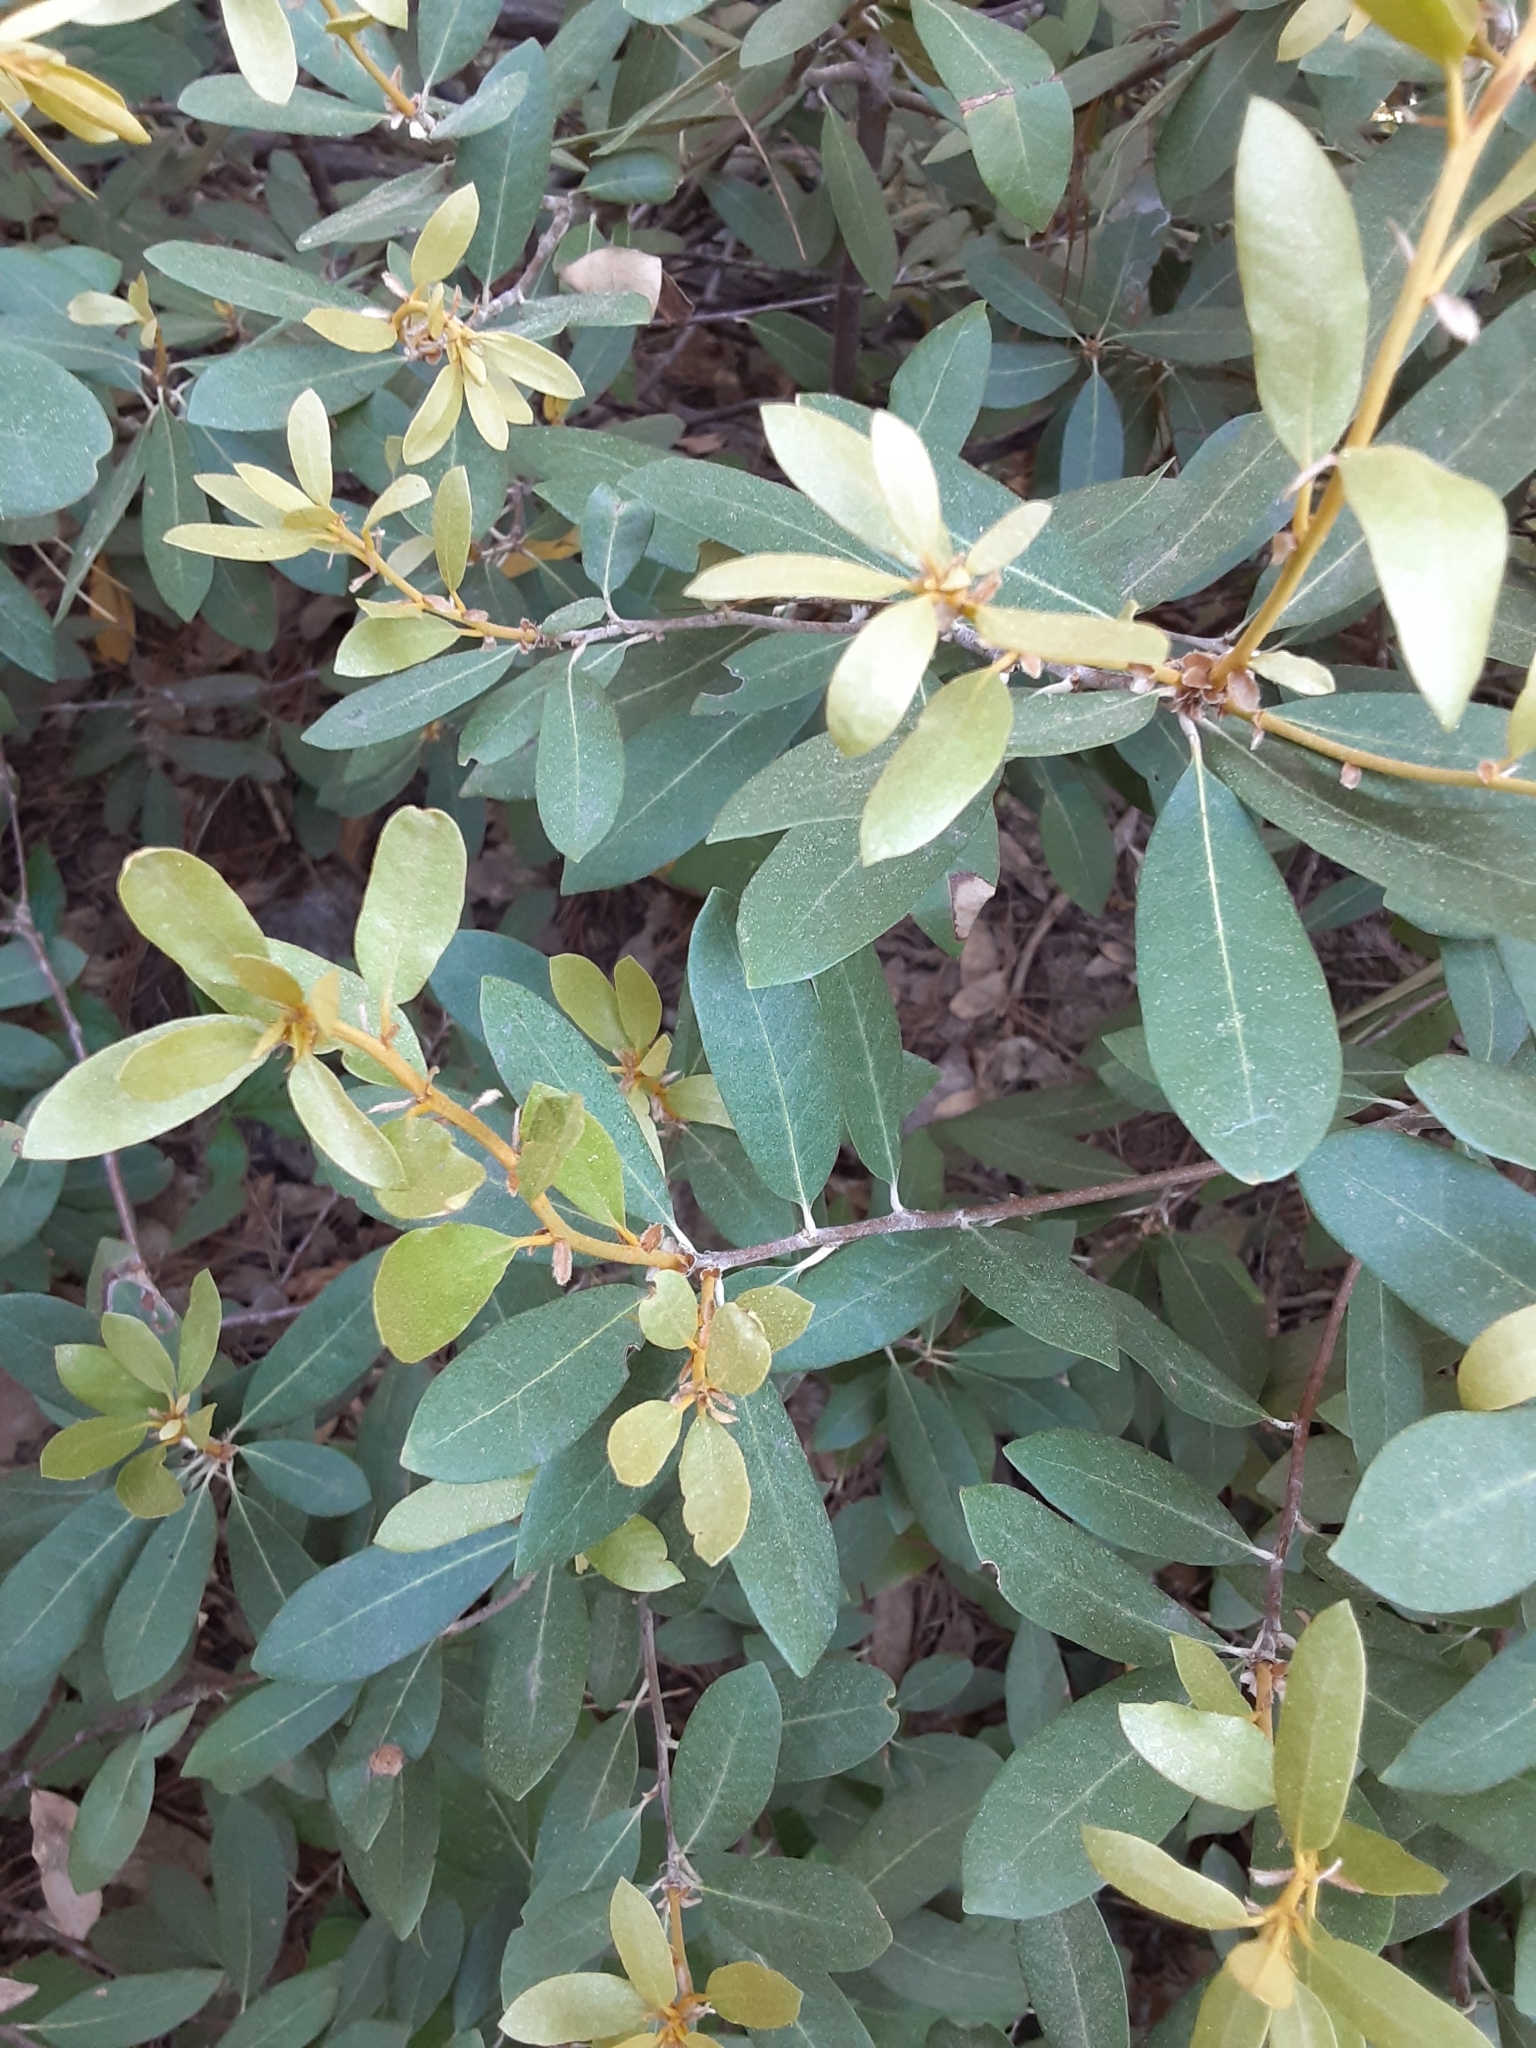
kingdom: Plantae
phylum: Tracheophyta
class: Magnoliopsida
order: Fagales
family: Fagaceae
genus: Chrysolepis
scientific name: Chrysolepis sempervirens
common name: Bush chinquapin
